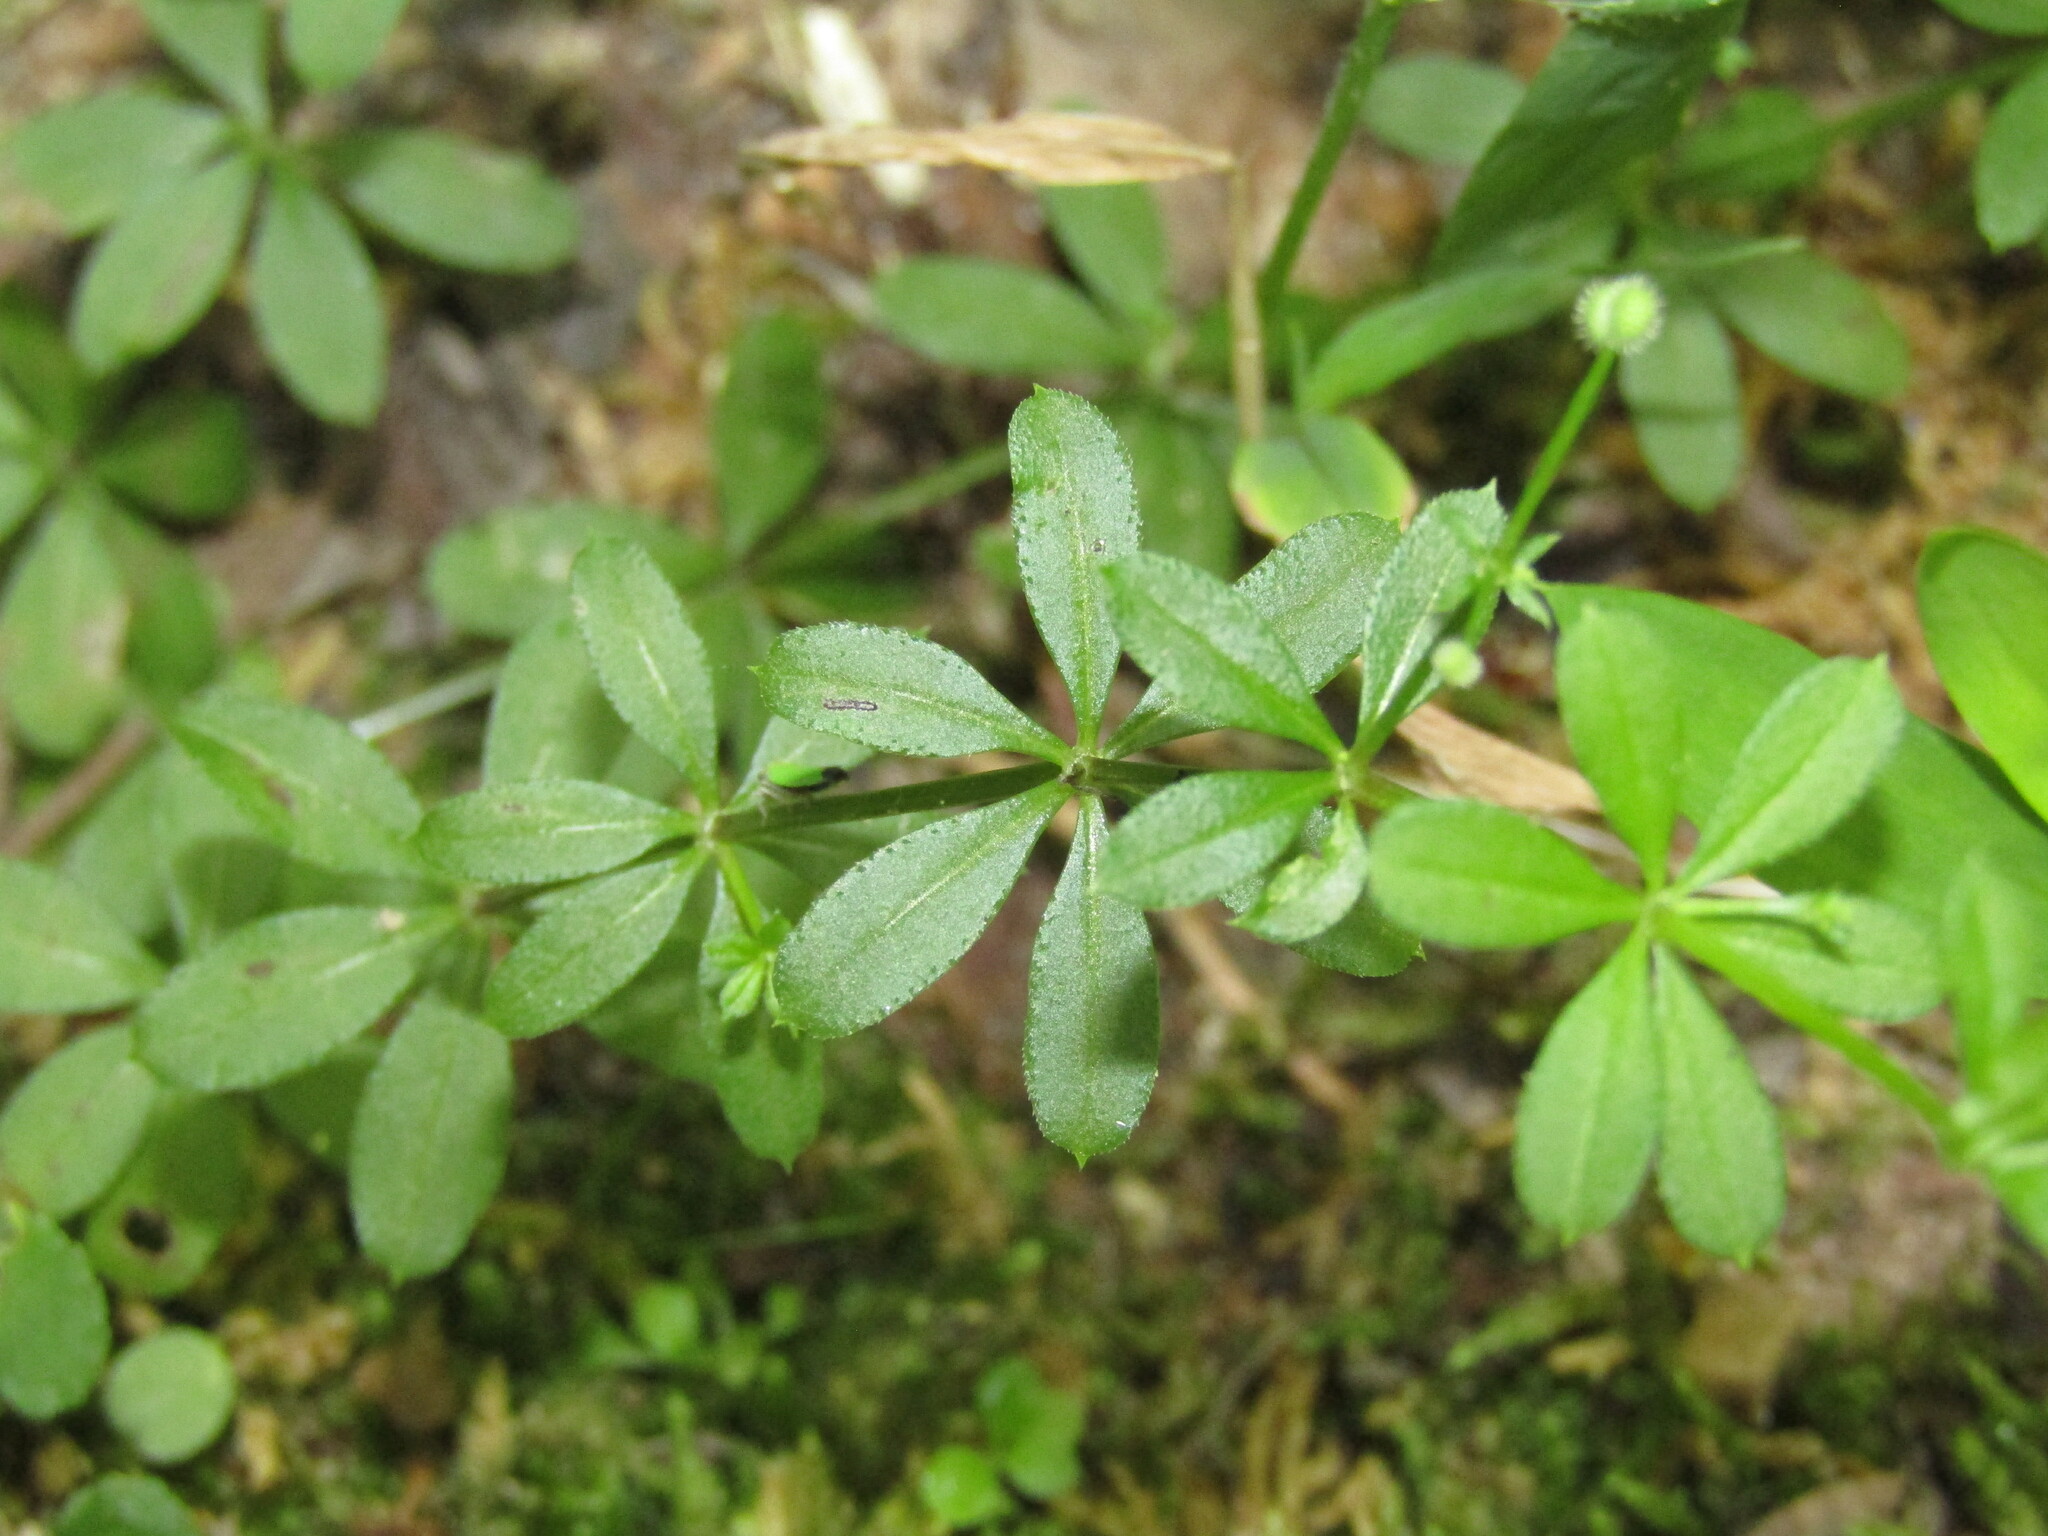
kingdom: Plantae
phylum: Tracheophyta
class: Magnoliopsida
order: Gentianales
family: Rubiaceae
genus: Galium
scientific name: Galium triflorum
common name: Fragrant bedstraw
